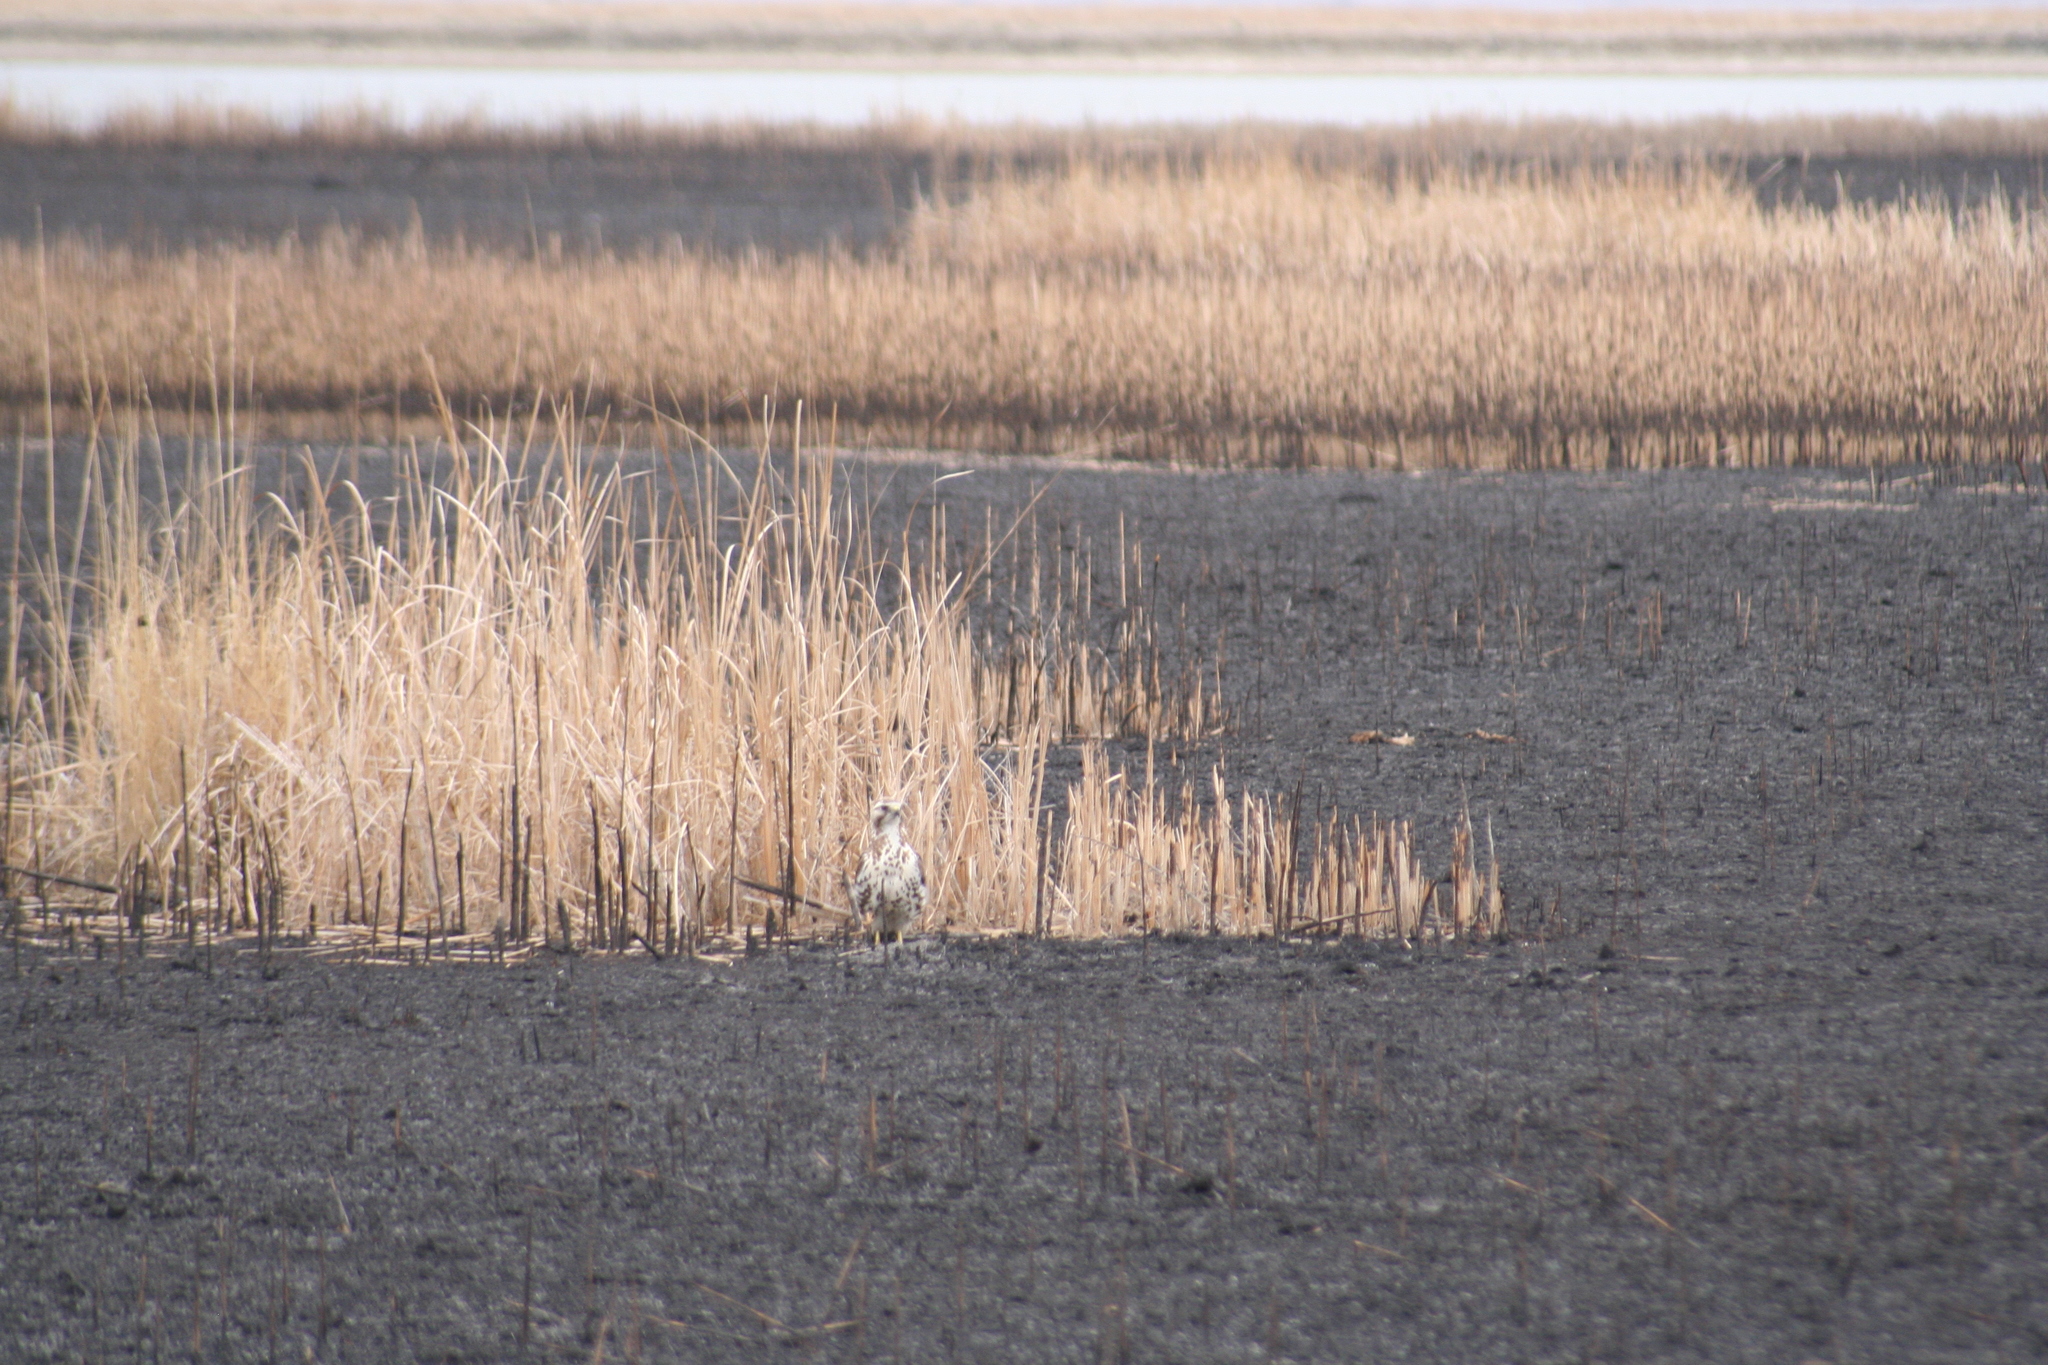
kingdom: Animalia
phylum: Chordata
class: Aves
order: Accipitriformes
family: Accipitridae
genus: Buteo
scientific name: Buteo platypterus
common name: Broad-winged hawk
